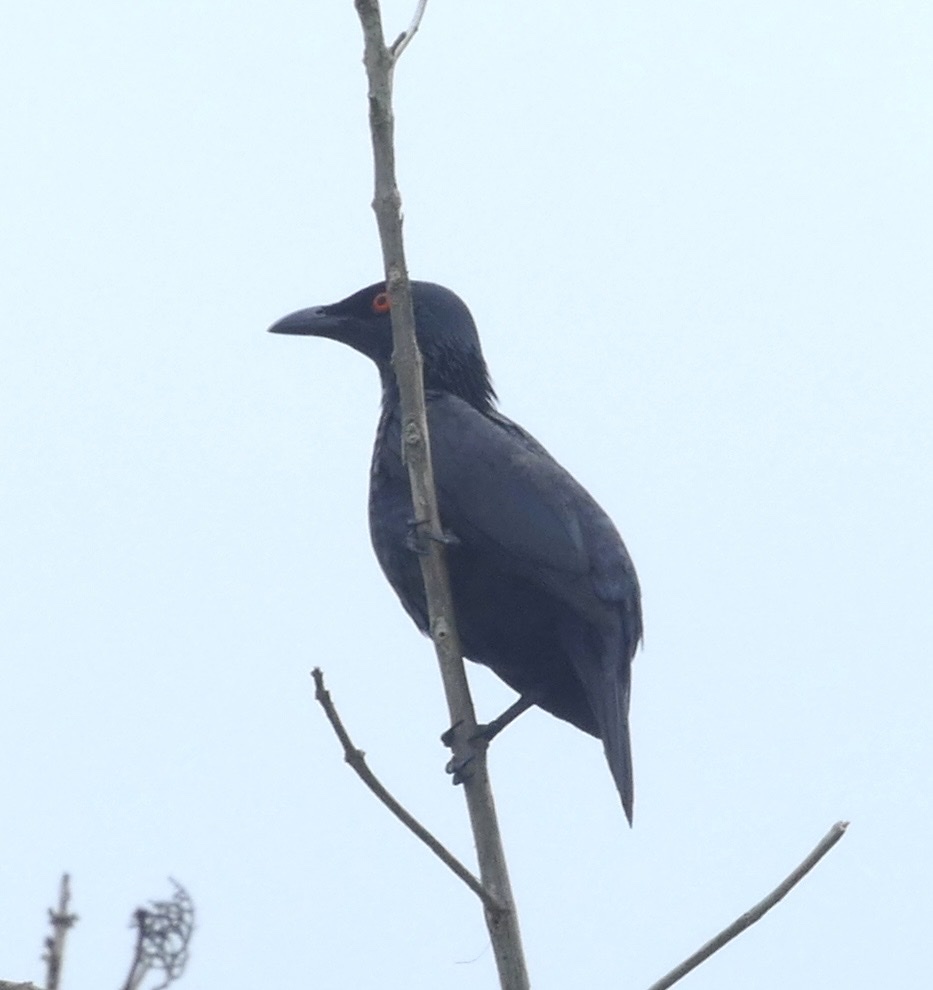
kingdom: Animalia
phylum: Chordata
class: Aves
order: Passeriformes
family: Sturnidae
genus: Aplonis
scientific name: Aplonis cantoroides
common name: Singing starling
